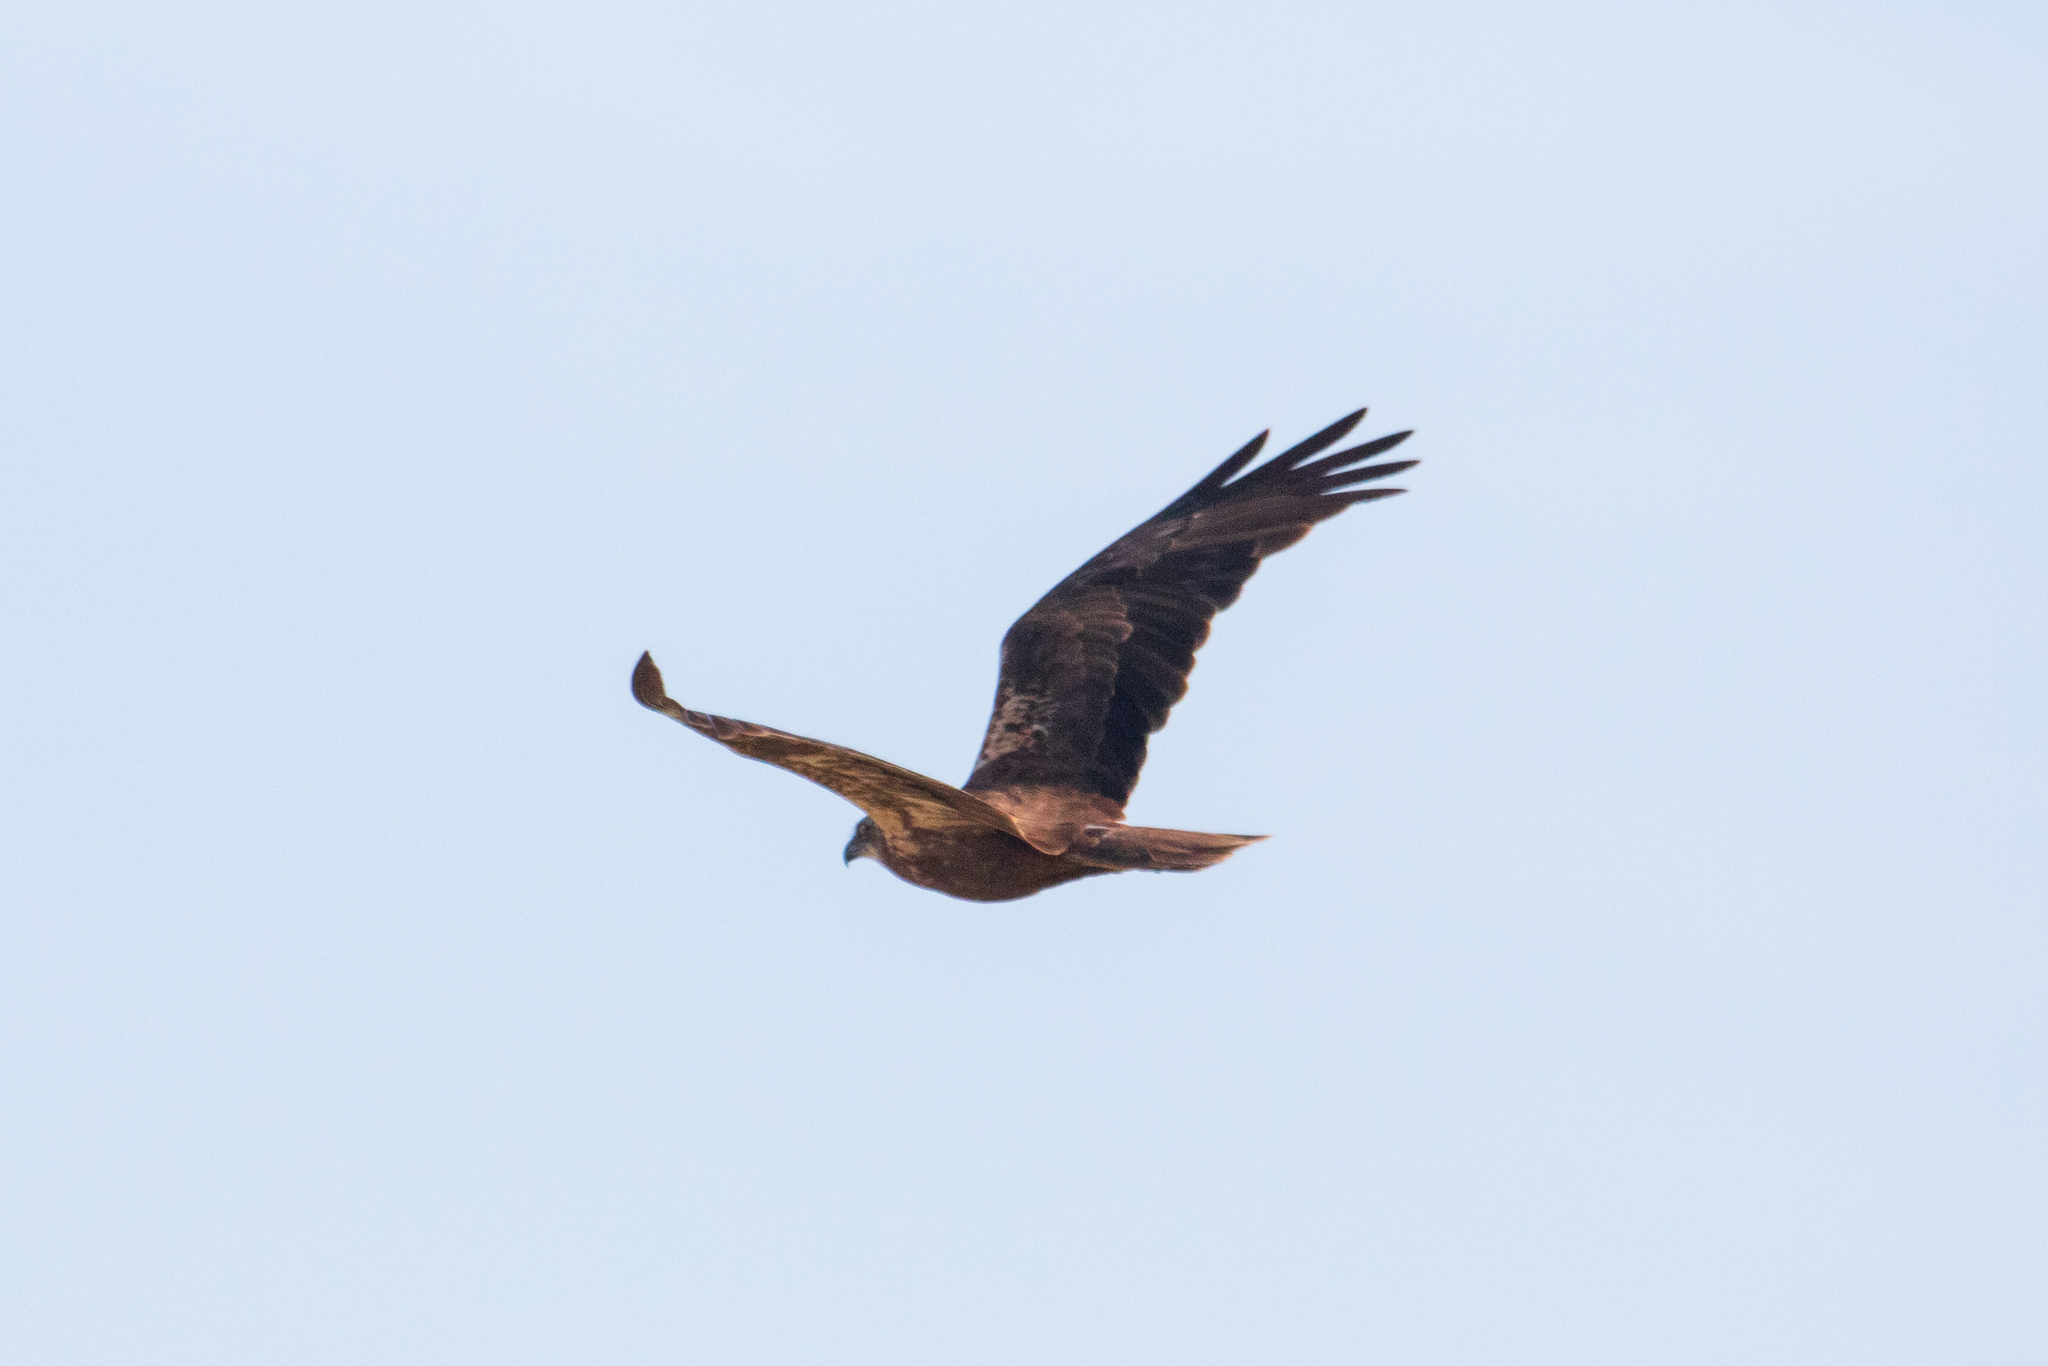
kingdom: Animalia
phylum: Chordata
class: Aves
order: Accipitriformes
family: Accipitridae
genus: Circus
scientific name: Circus aeruginosus
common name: Western marsh harrier
